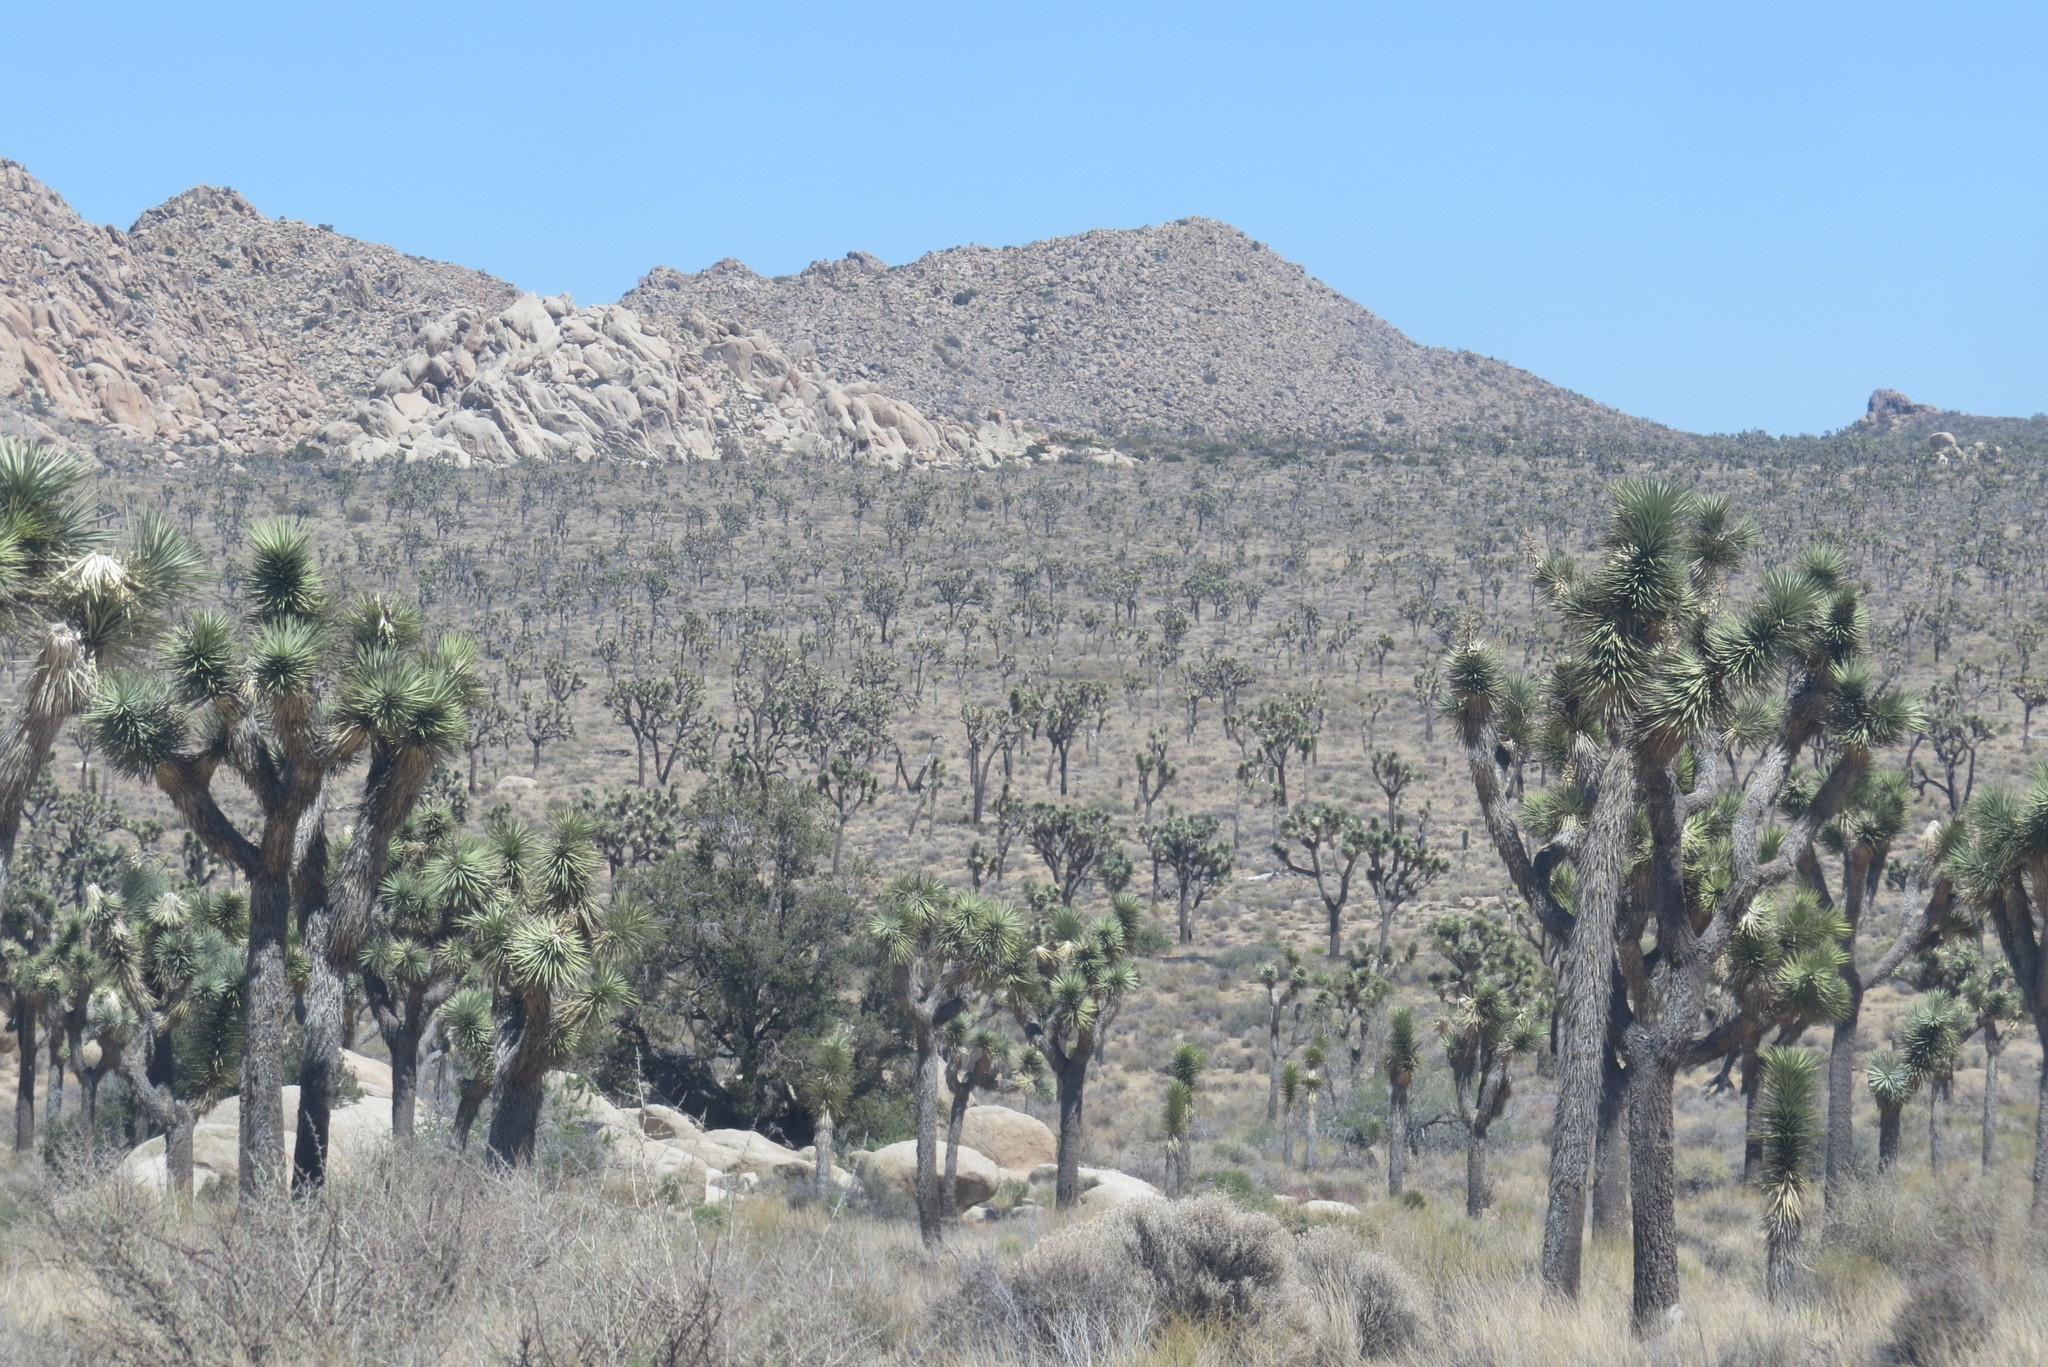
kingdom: Plantae
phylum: Tracheophyta
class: Liliopsida
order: Asparagales
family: Asparagaceae
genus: Yucca
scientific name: Yucca brevifolia
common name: Joshua tree
